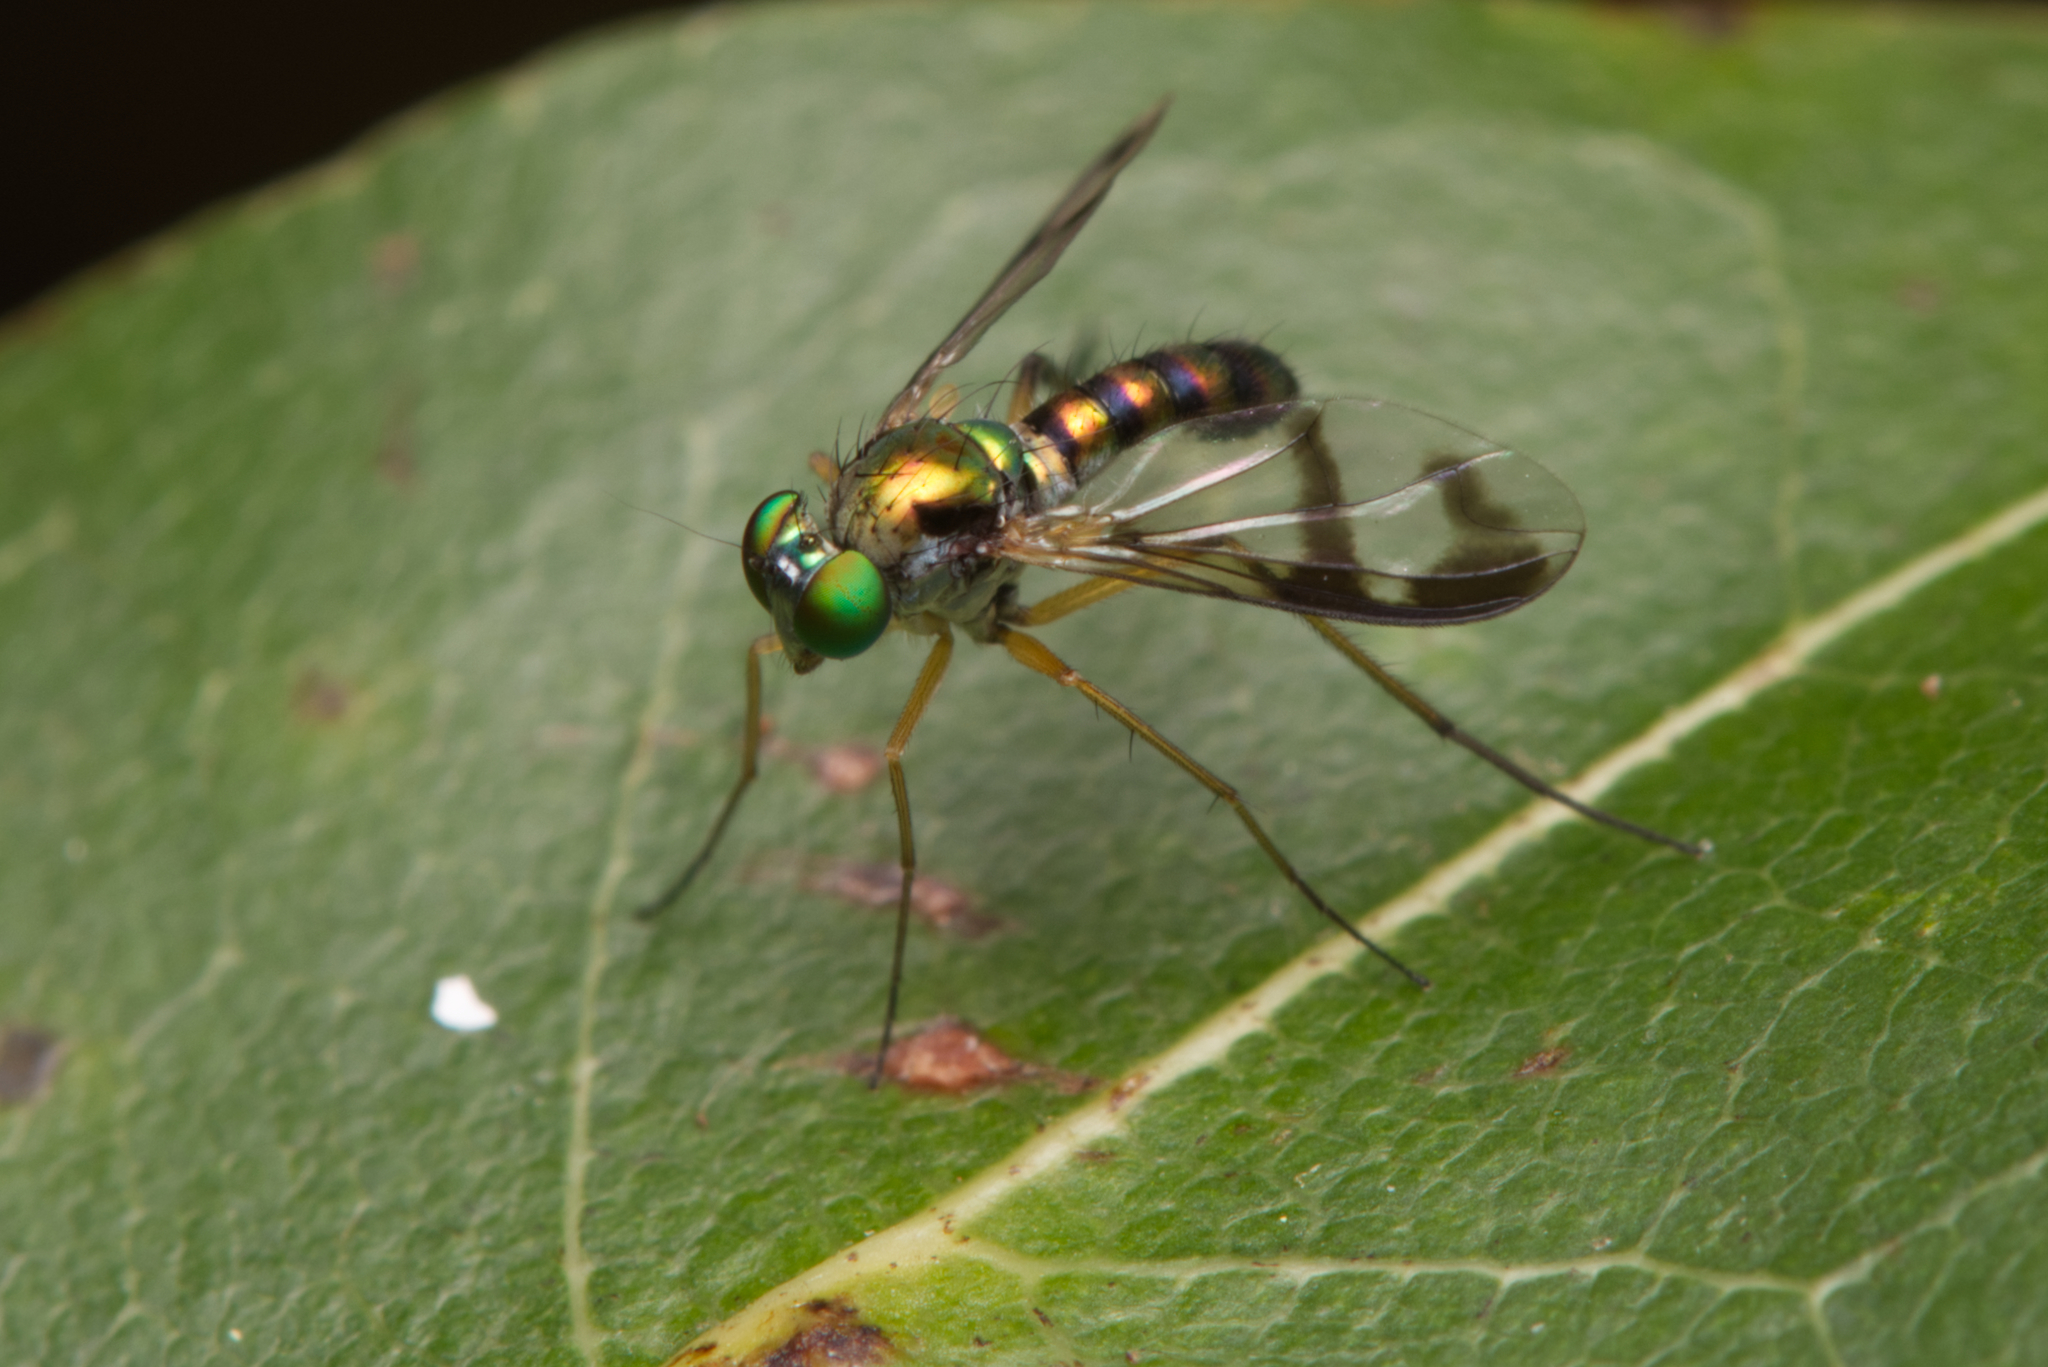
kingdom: Animalia
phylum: Arthropoda
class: Insecta
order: Diptera
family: Dolichopodidae
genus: Austrosciapus
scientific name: Austrosciapus zentae
